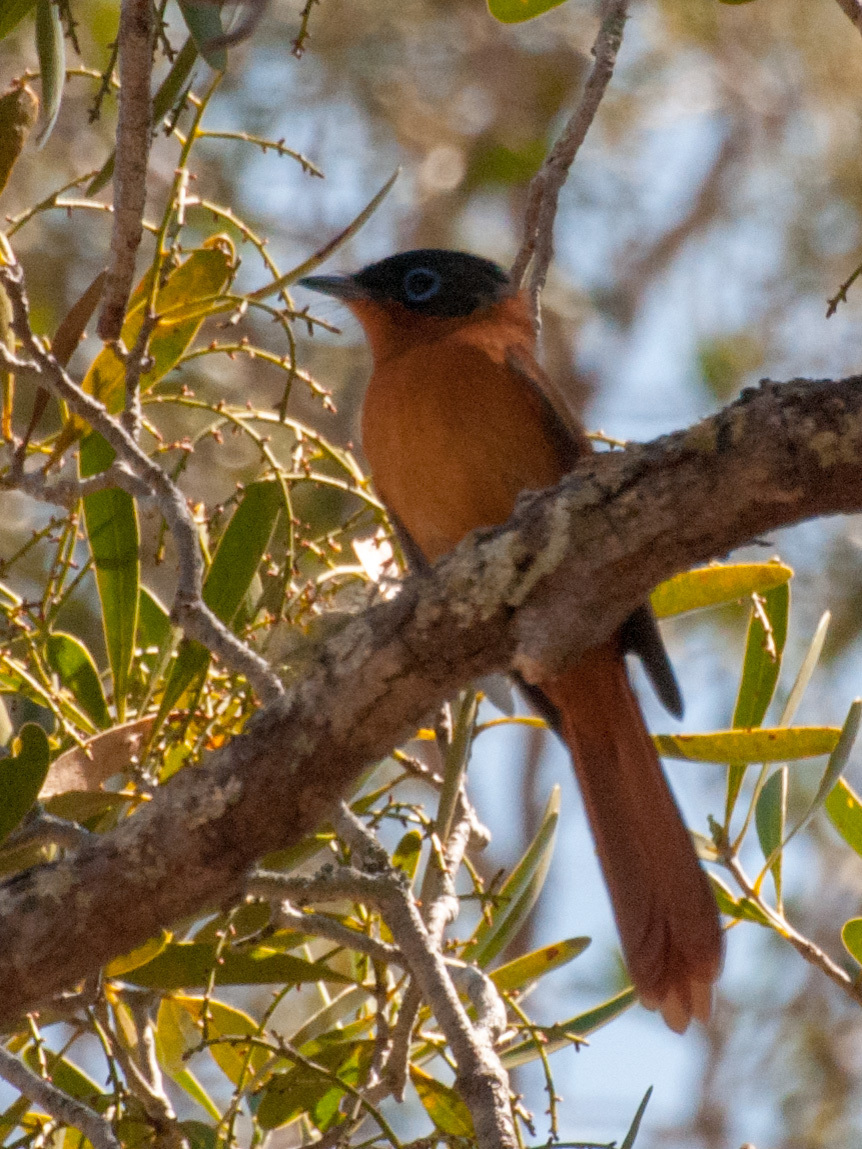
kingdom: Animalia
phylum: Chordata
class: Aves
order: Passeriformes
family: Monarchidae
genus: Terpsiphone
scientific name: Terpsiphone mutata
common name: Malagasy paradise flycatcher
